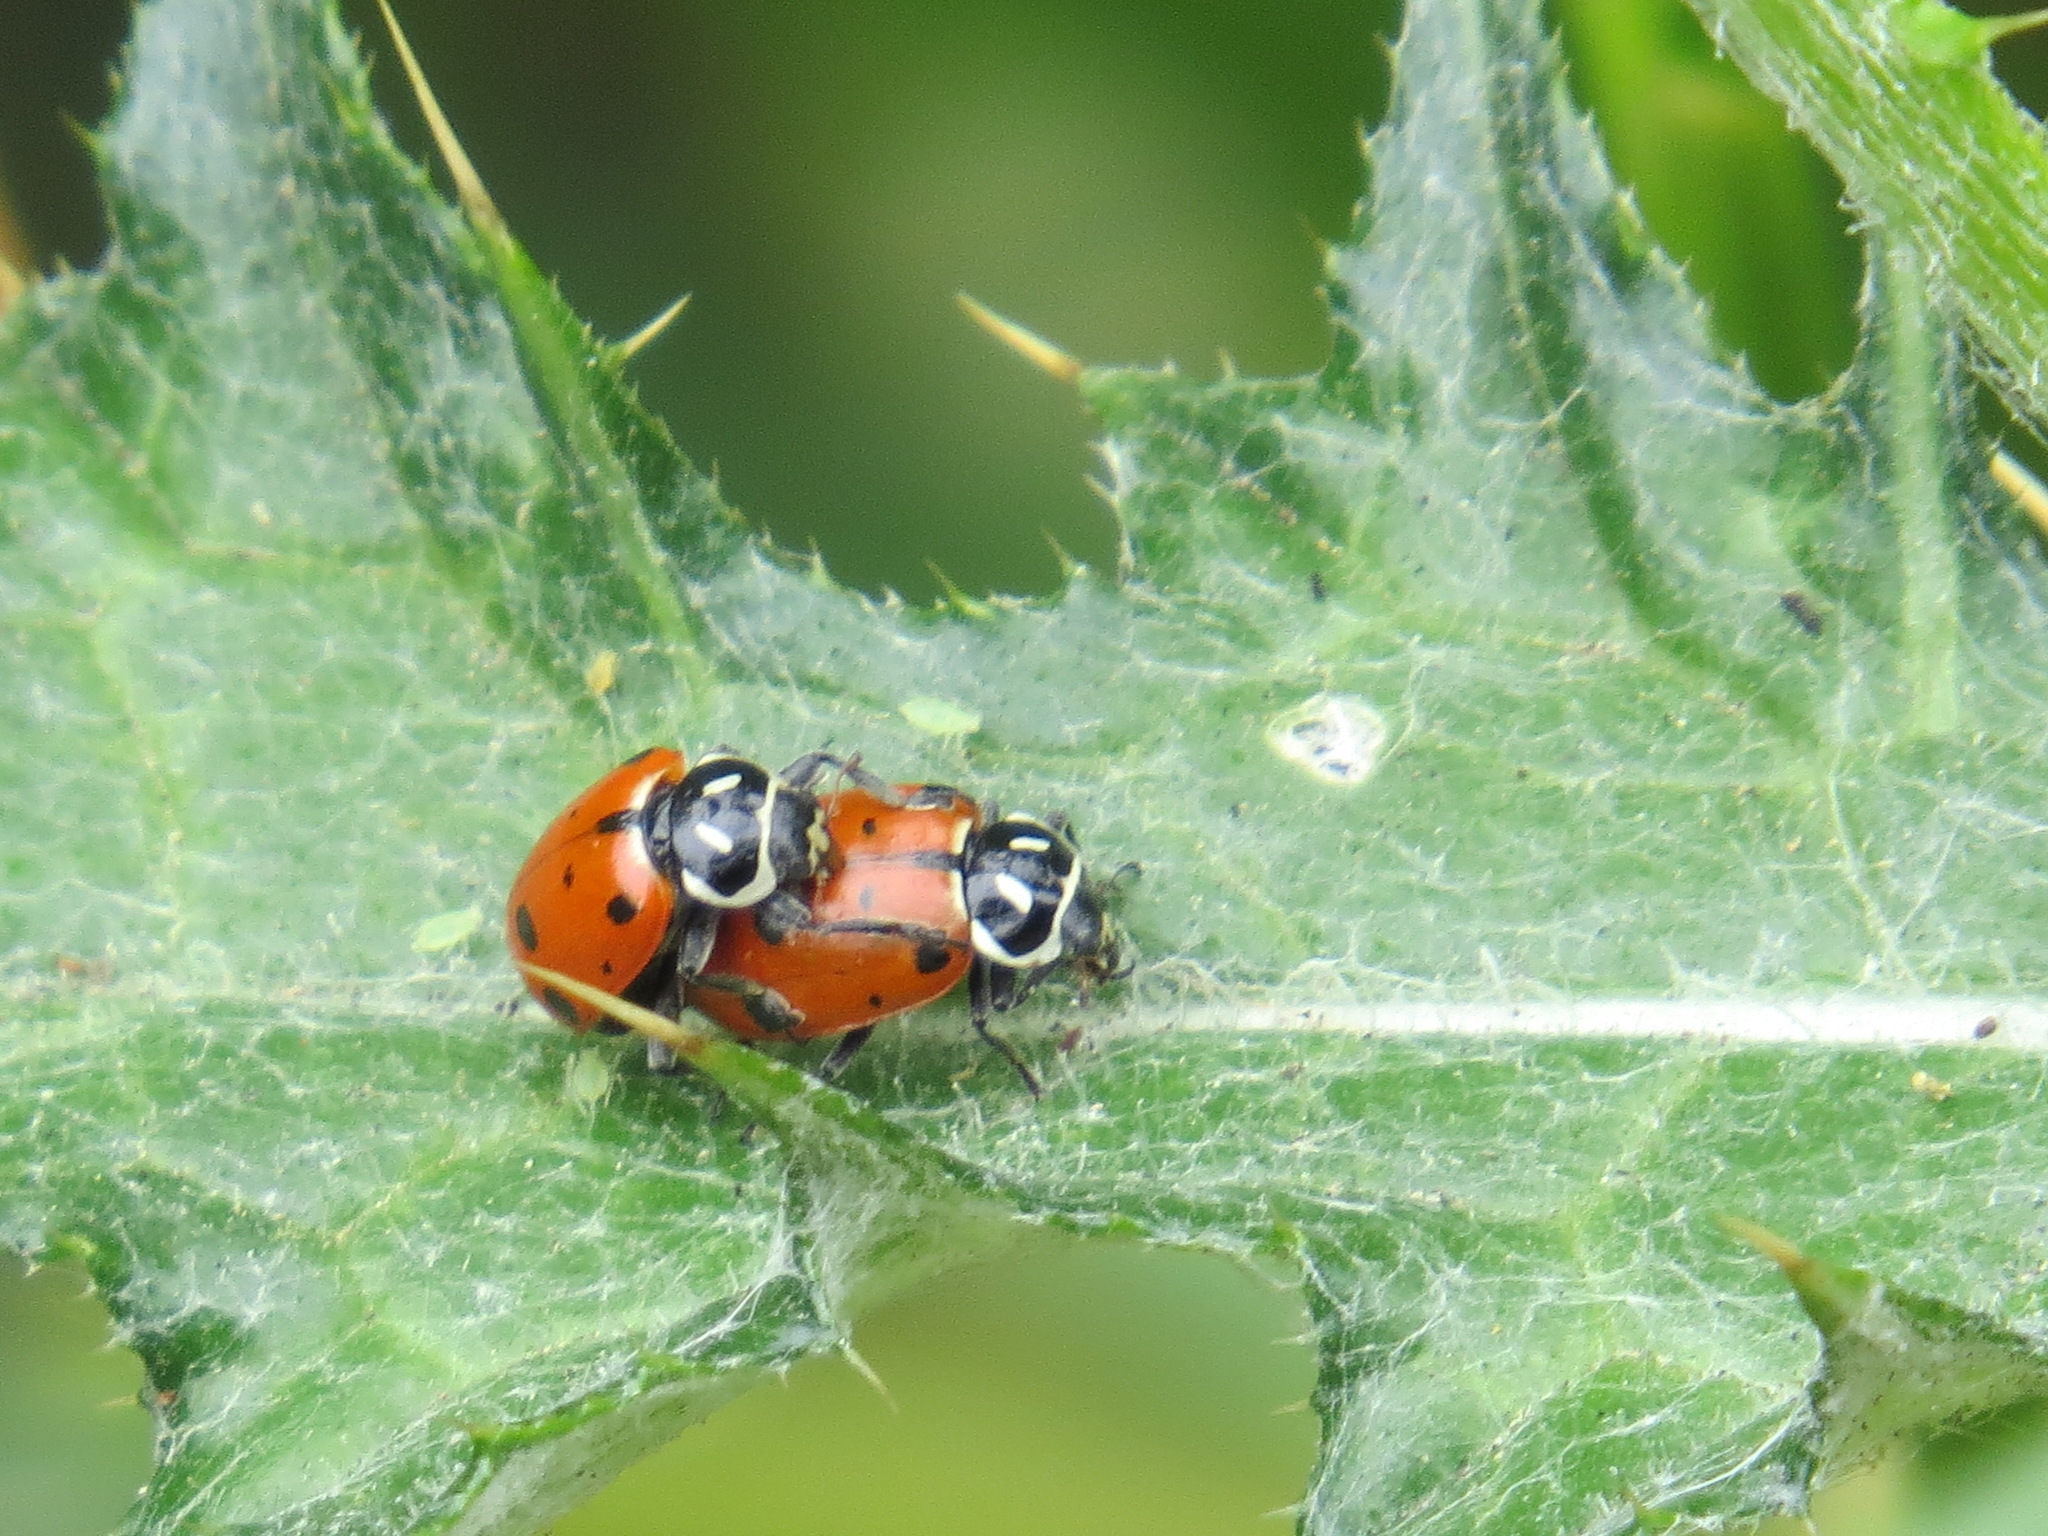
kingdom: Animalia
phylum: Arthropoda
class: Insecta
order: Coleoptera
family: Coccinellidae
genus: Hippodamia
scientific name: Hippodamia convergens
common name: Convergent lady beetle
